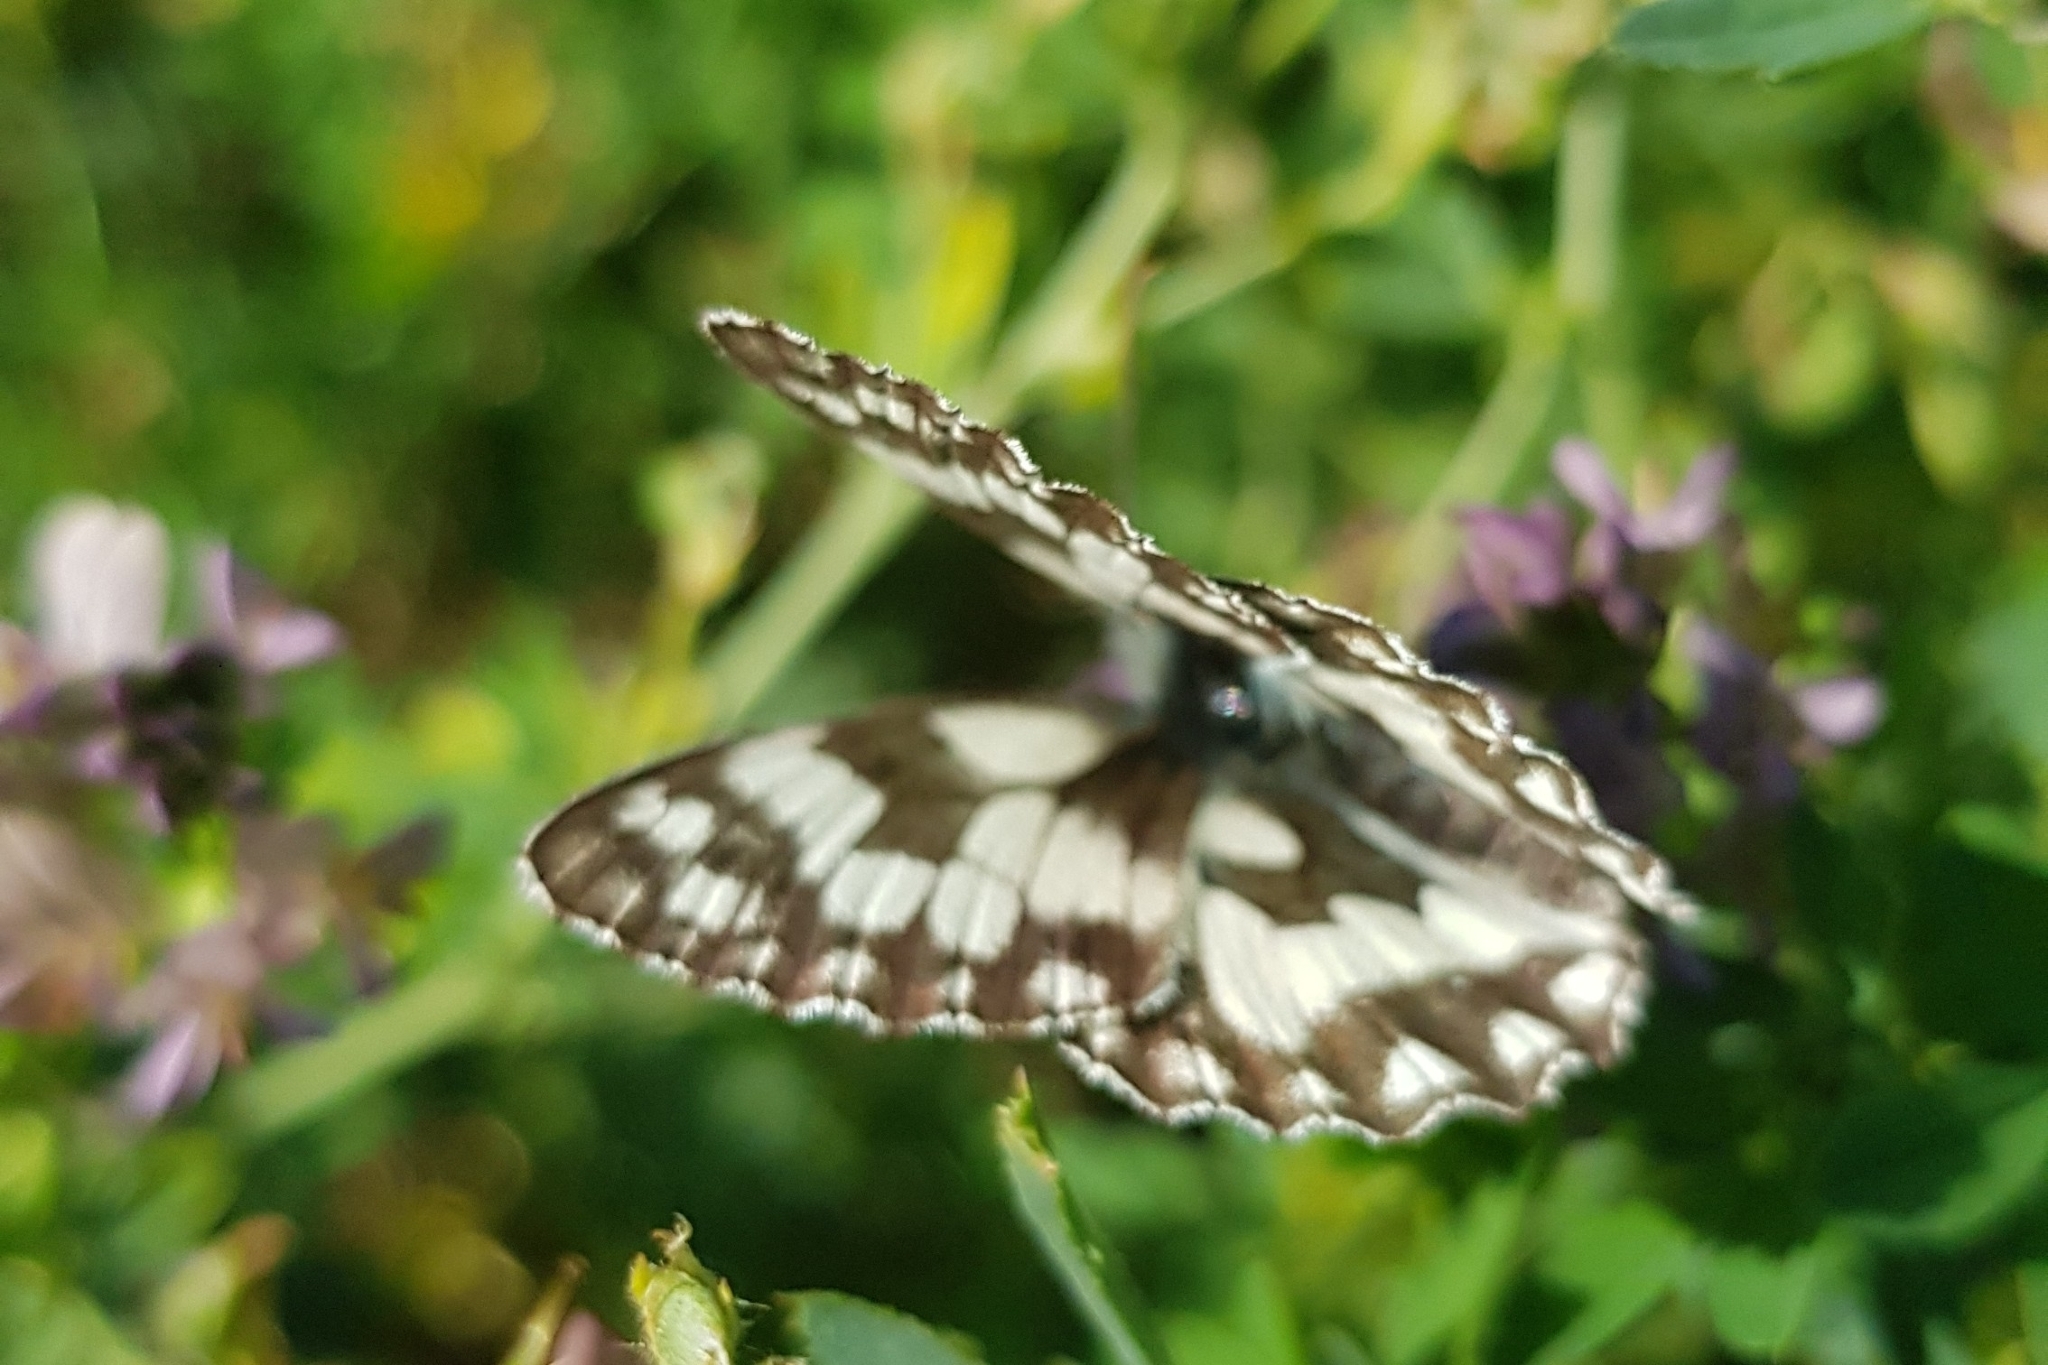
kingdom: Animalia
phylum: Arthropoda
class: Insecta
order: Lepidoptera
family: Nymphalidae
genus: Melanargia
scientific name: Melanargia galathea
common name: Marbled white
